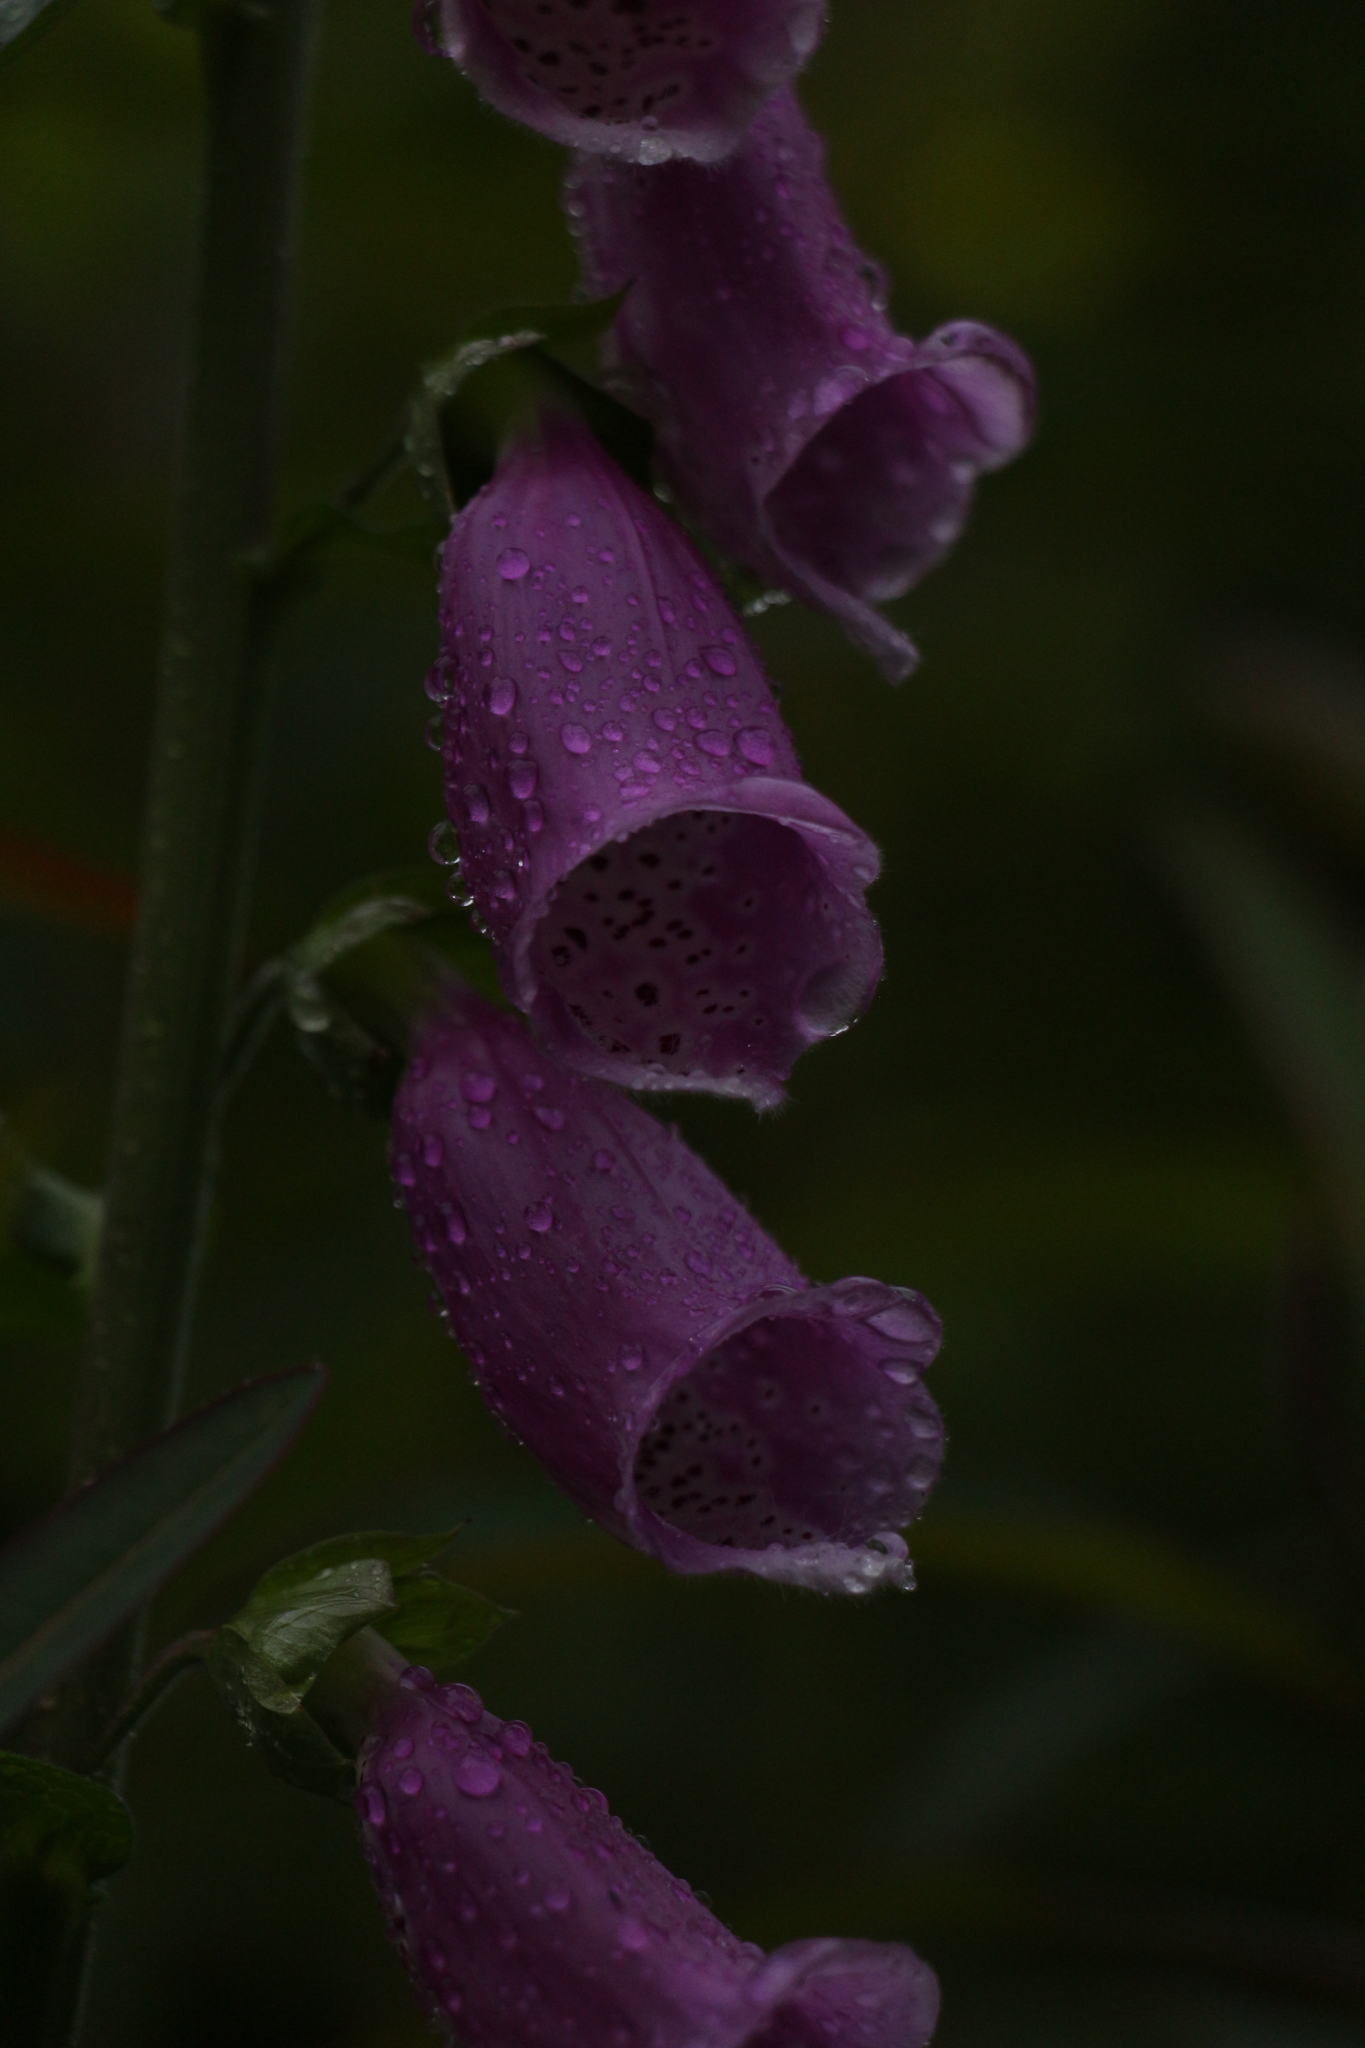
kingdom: Plantae
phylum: Tracheophyta
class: Magnoliopsida
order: Lamiales
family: Plantaginaceae
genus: Digitalis
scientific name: Digitalis purpurea
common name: Foxglove
